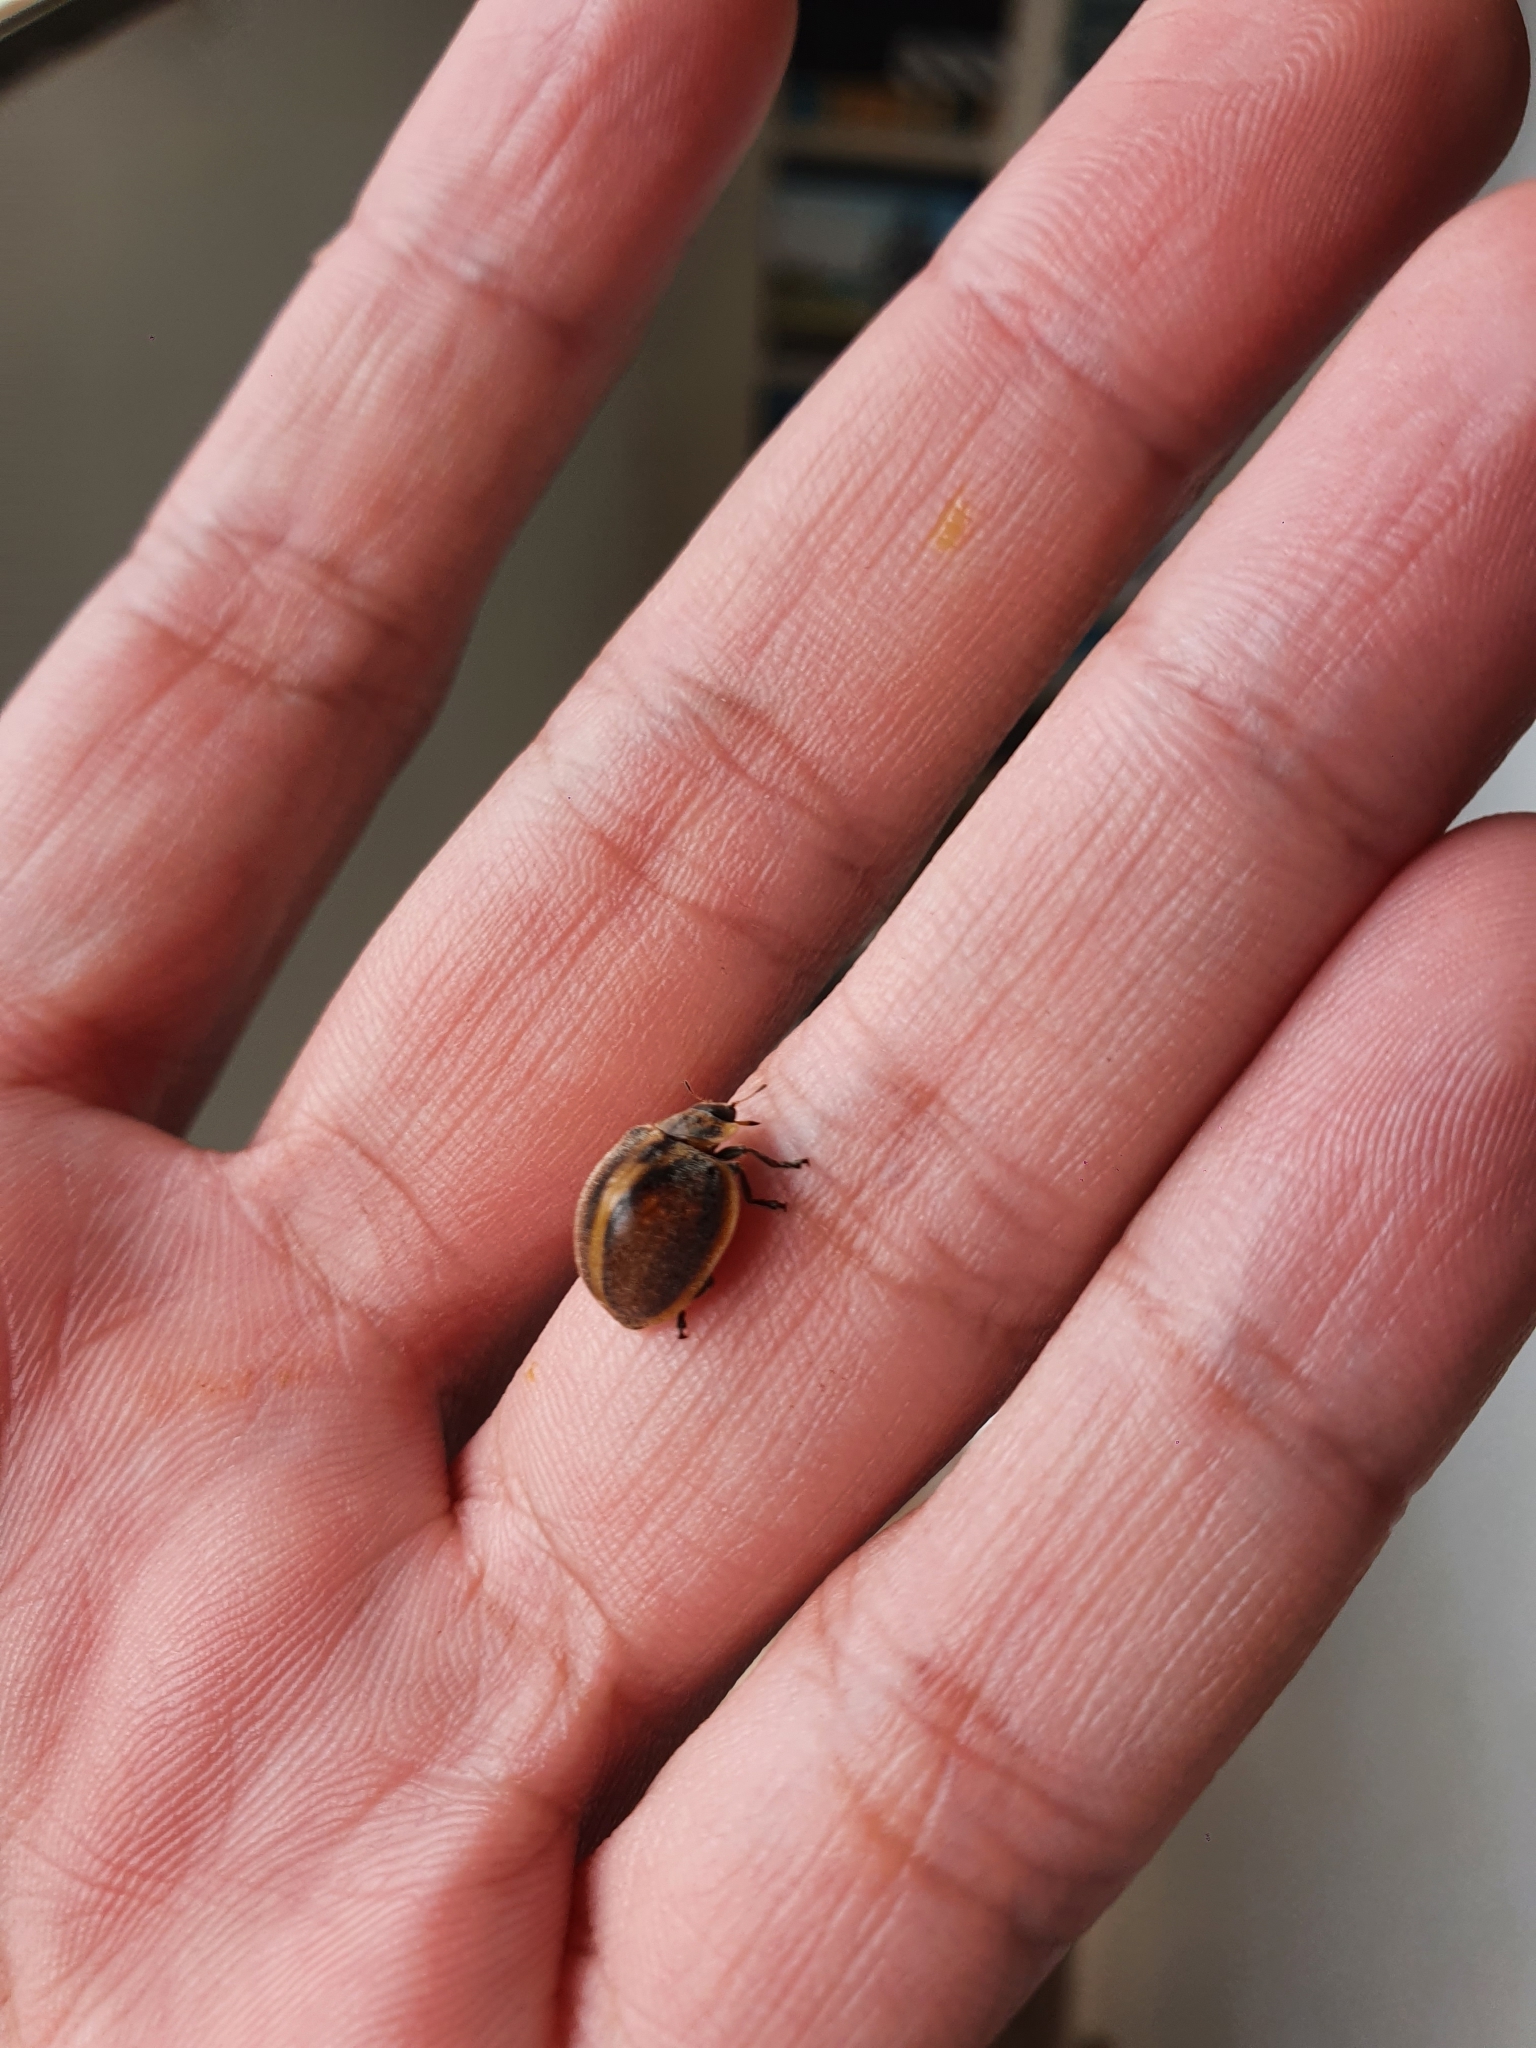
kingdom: Animalia
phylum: Arthropoda
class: Insecta
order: Coleoptera
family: Coccinellidae
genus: Epilachna
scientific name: Epilachna
